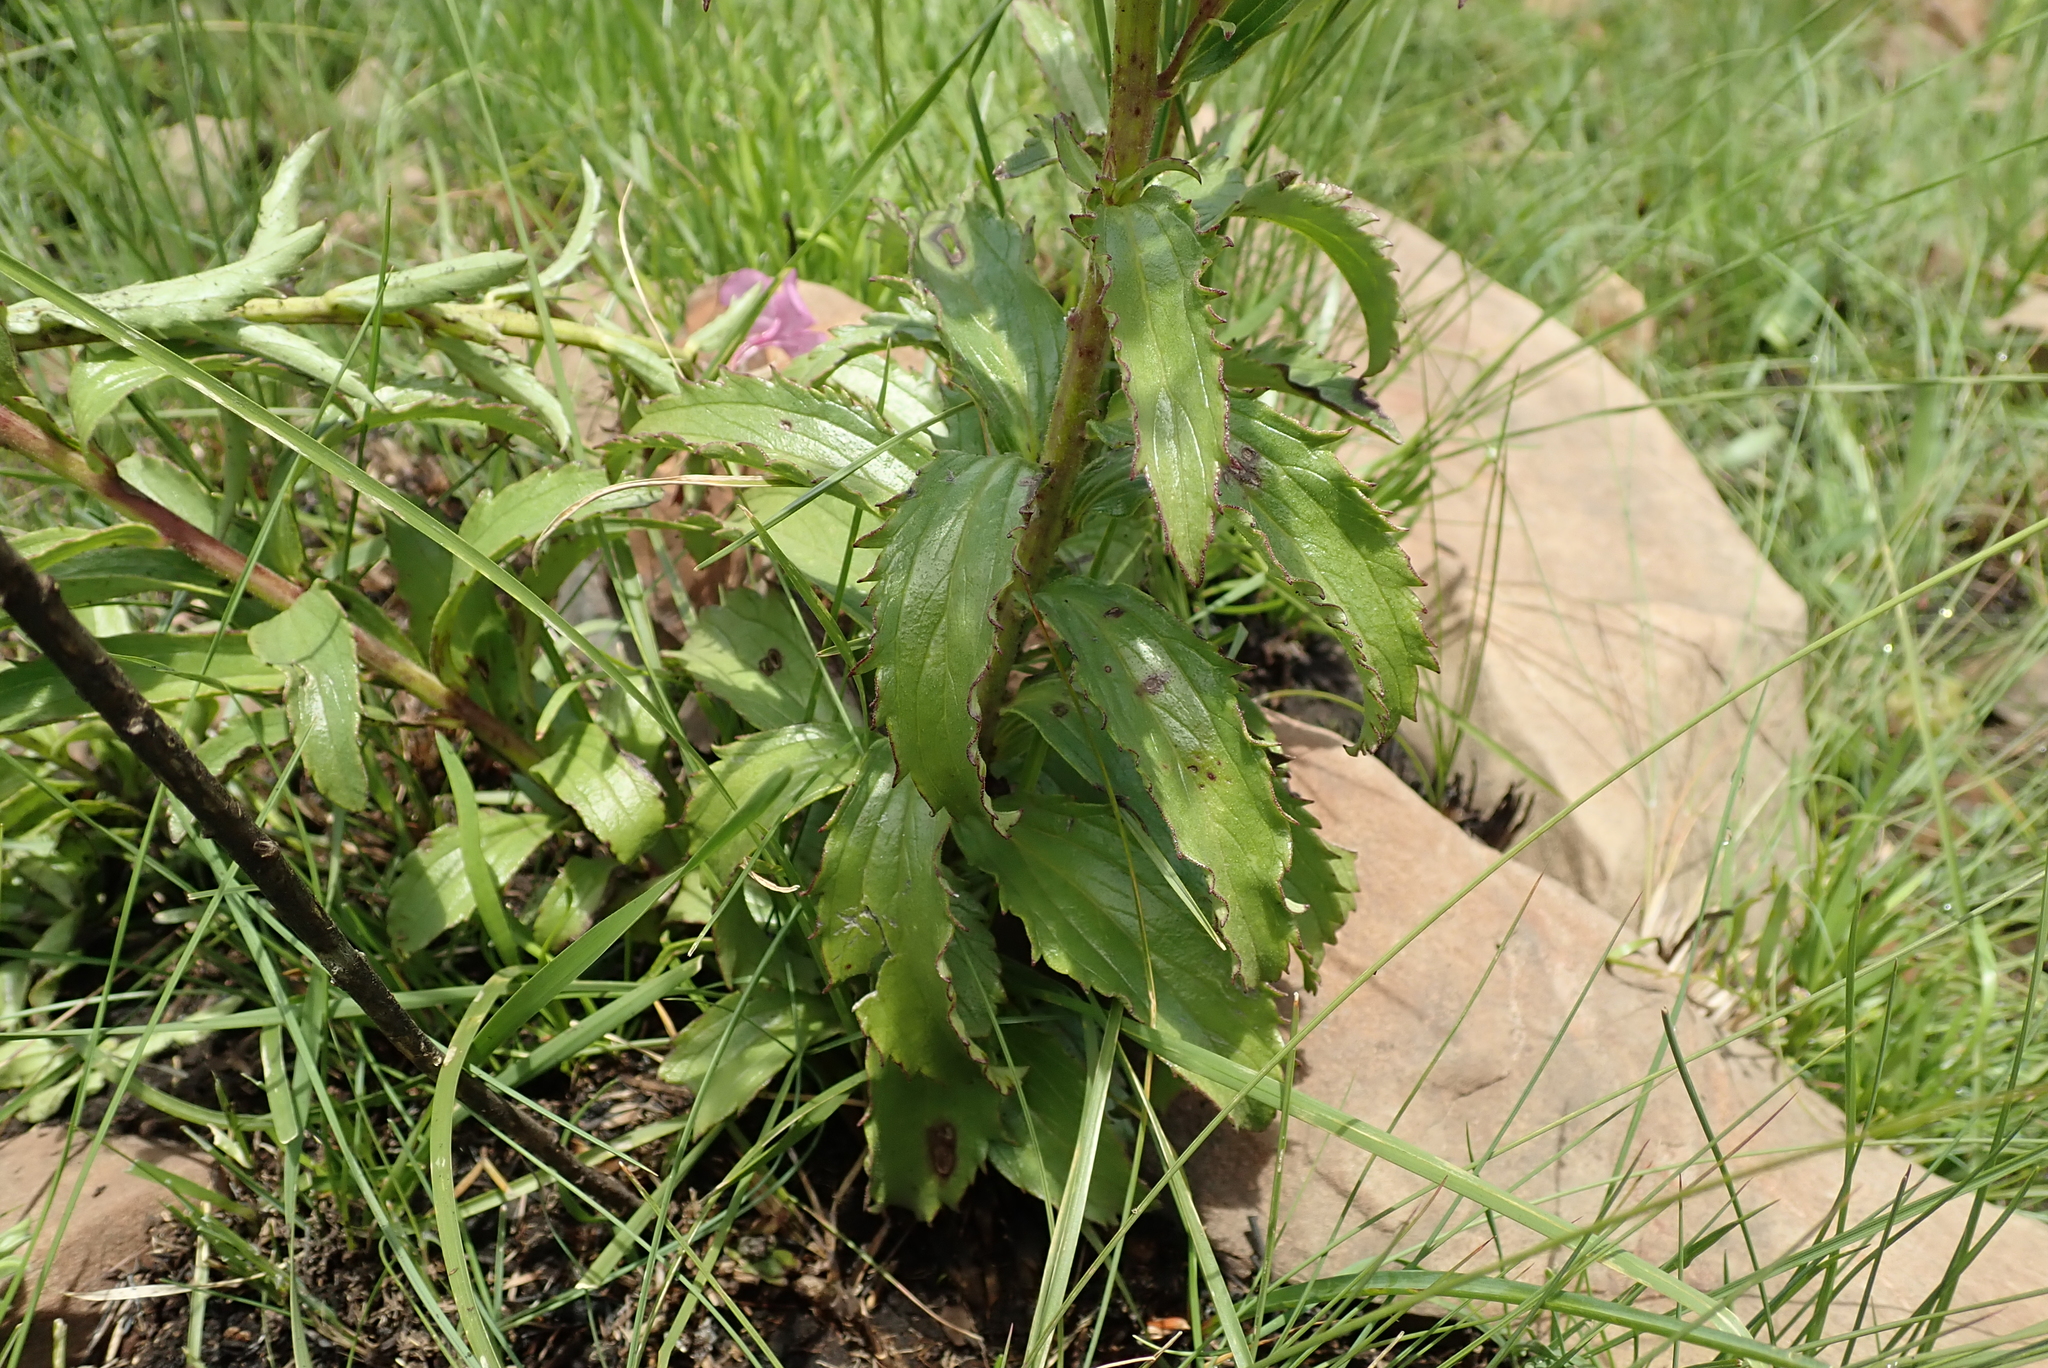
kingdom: Plantae
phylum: Tracheophyta
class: Magnoliopsida
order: Lamiales
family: Orobanchaceae
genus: Cycnium
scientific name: Cycnium racemosum
